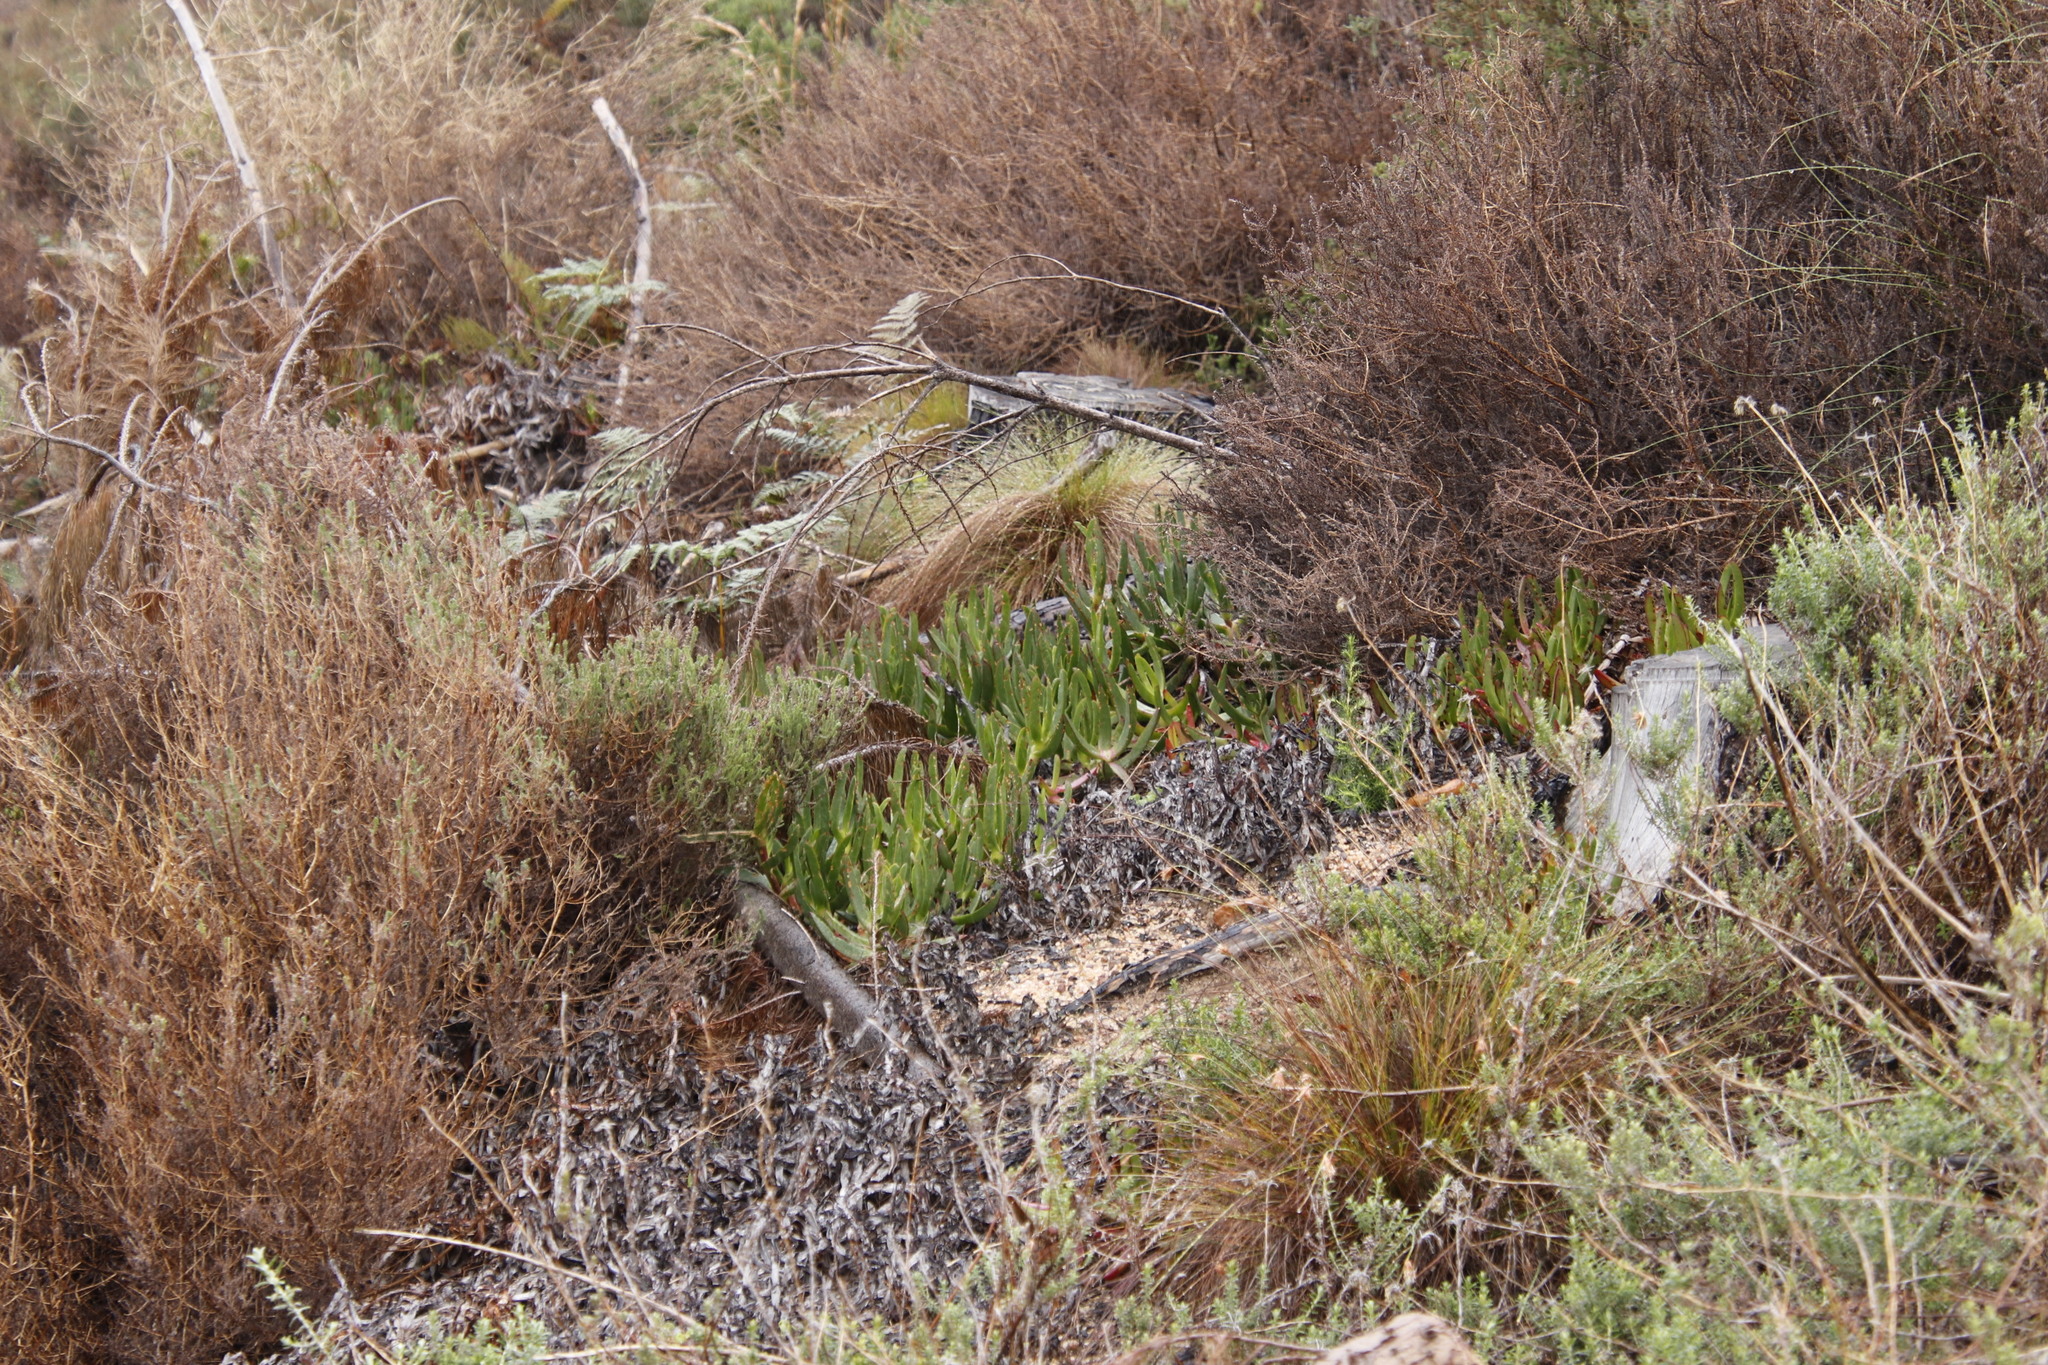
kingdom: Plantae
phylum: Tracheophyta
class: Magnoliopsida
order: Caryophyllales
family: Aizoaceae
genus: Carpobrotus
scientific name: Carpobrotus edulis
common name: Hottentot-fig
